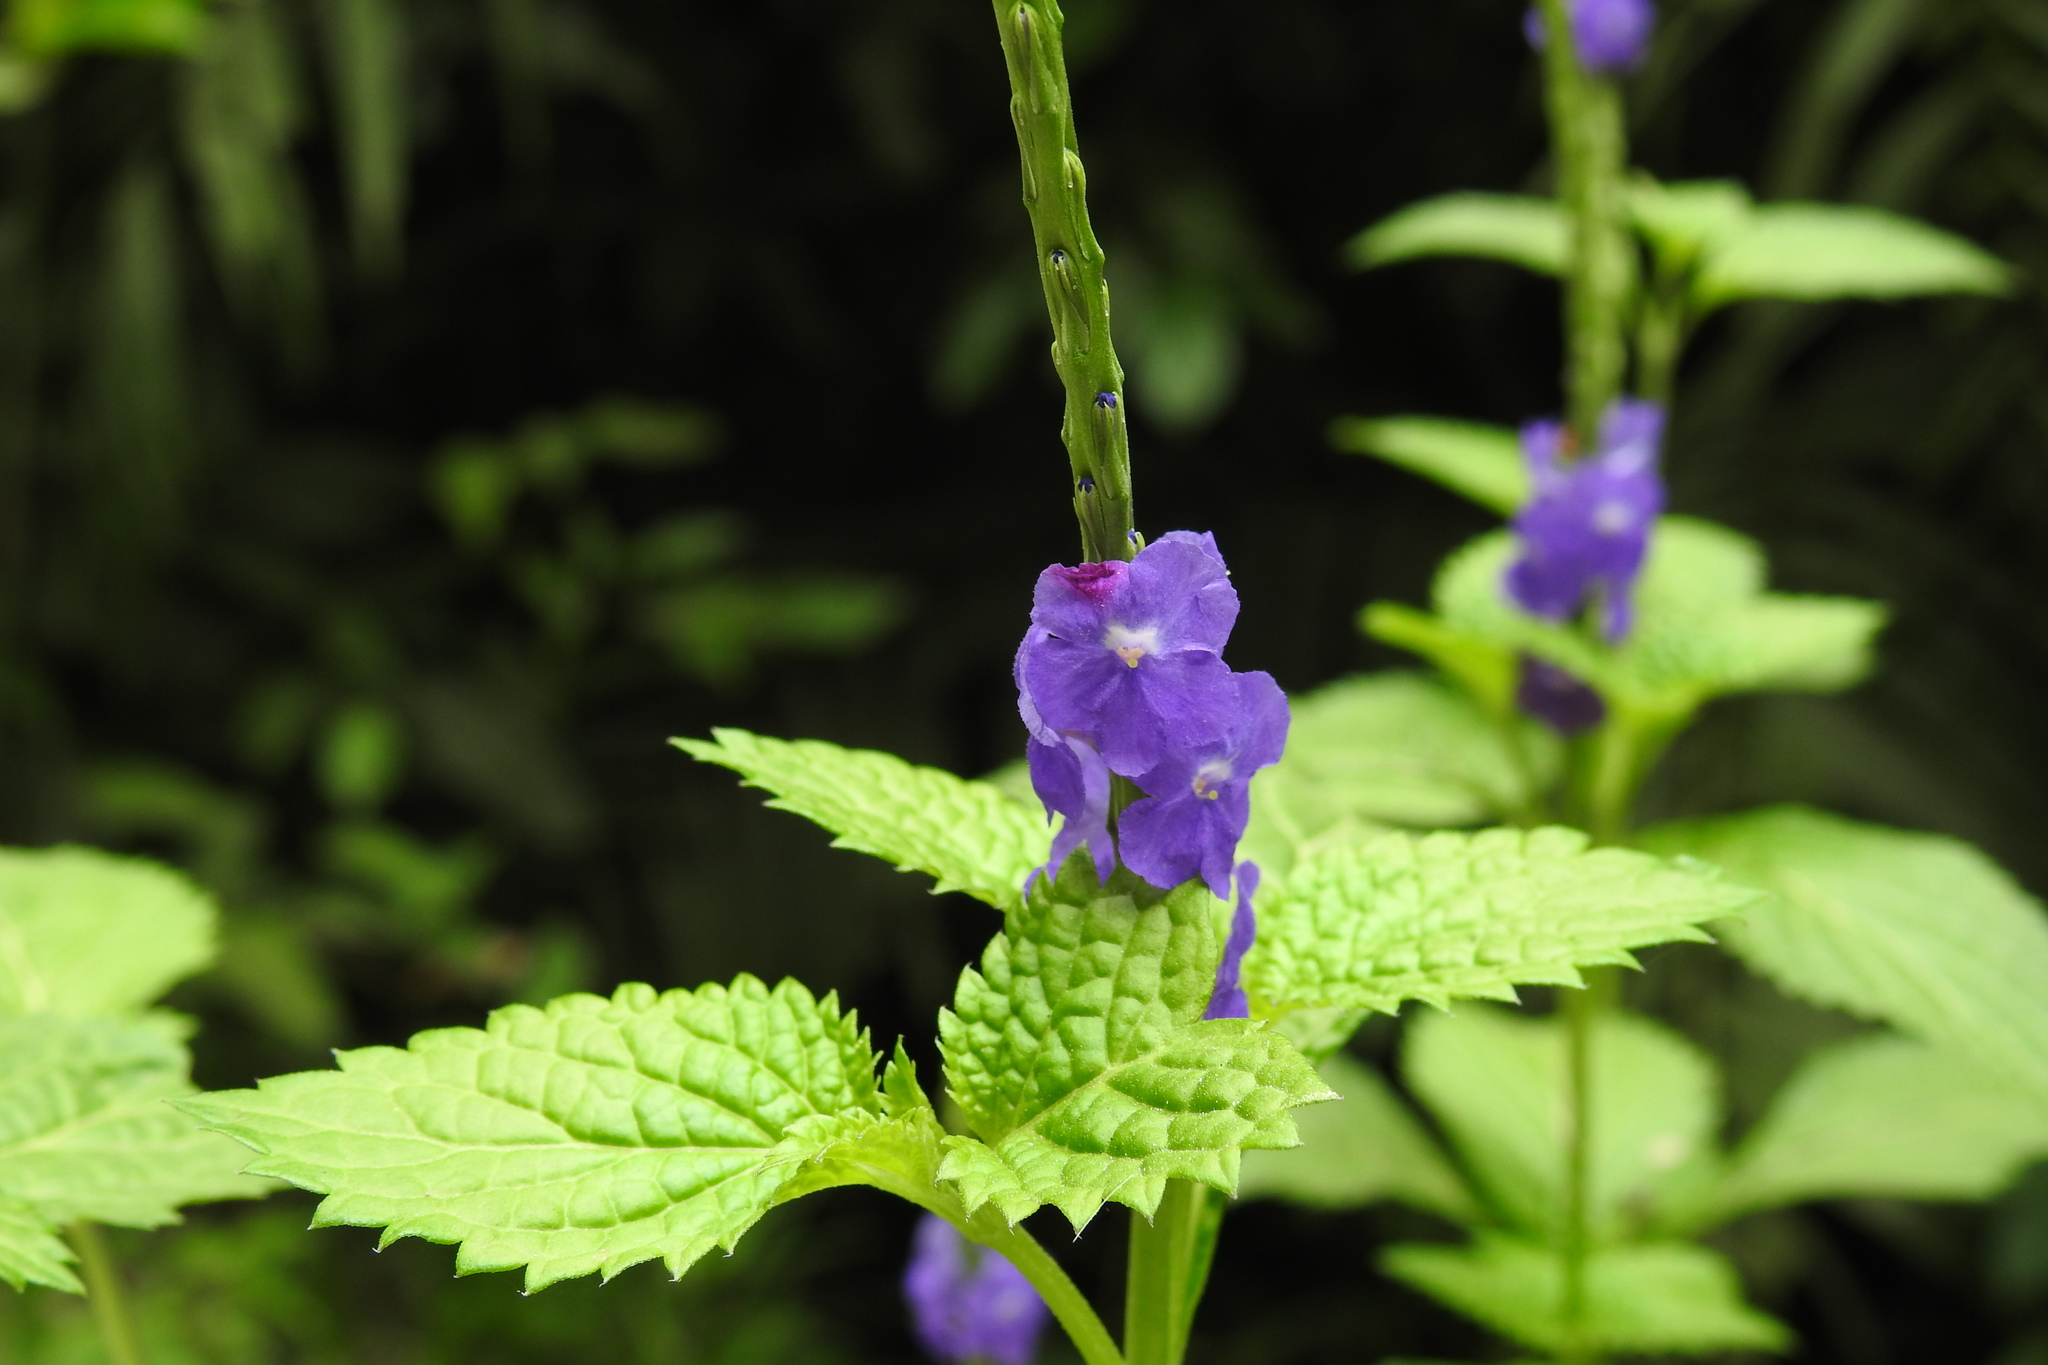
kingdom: Plantae
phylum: Tracheophyta
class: Magnoliopsida
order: Lamiales
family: Verbenaceae
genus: Stachytarpheta
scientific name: Stachytarpheta jamaicensis
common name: Light-blue snakeweed
